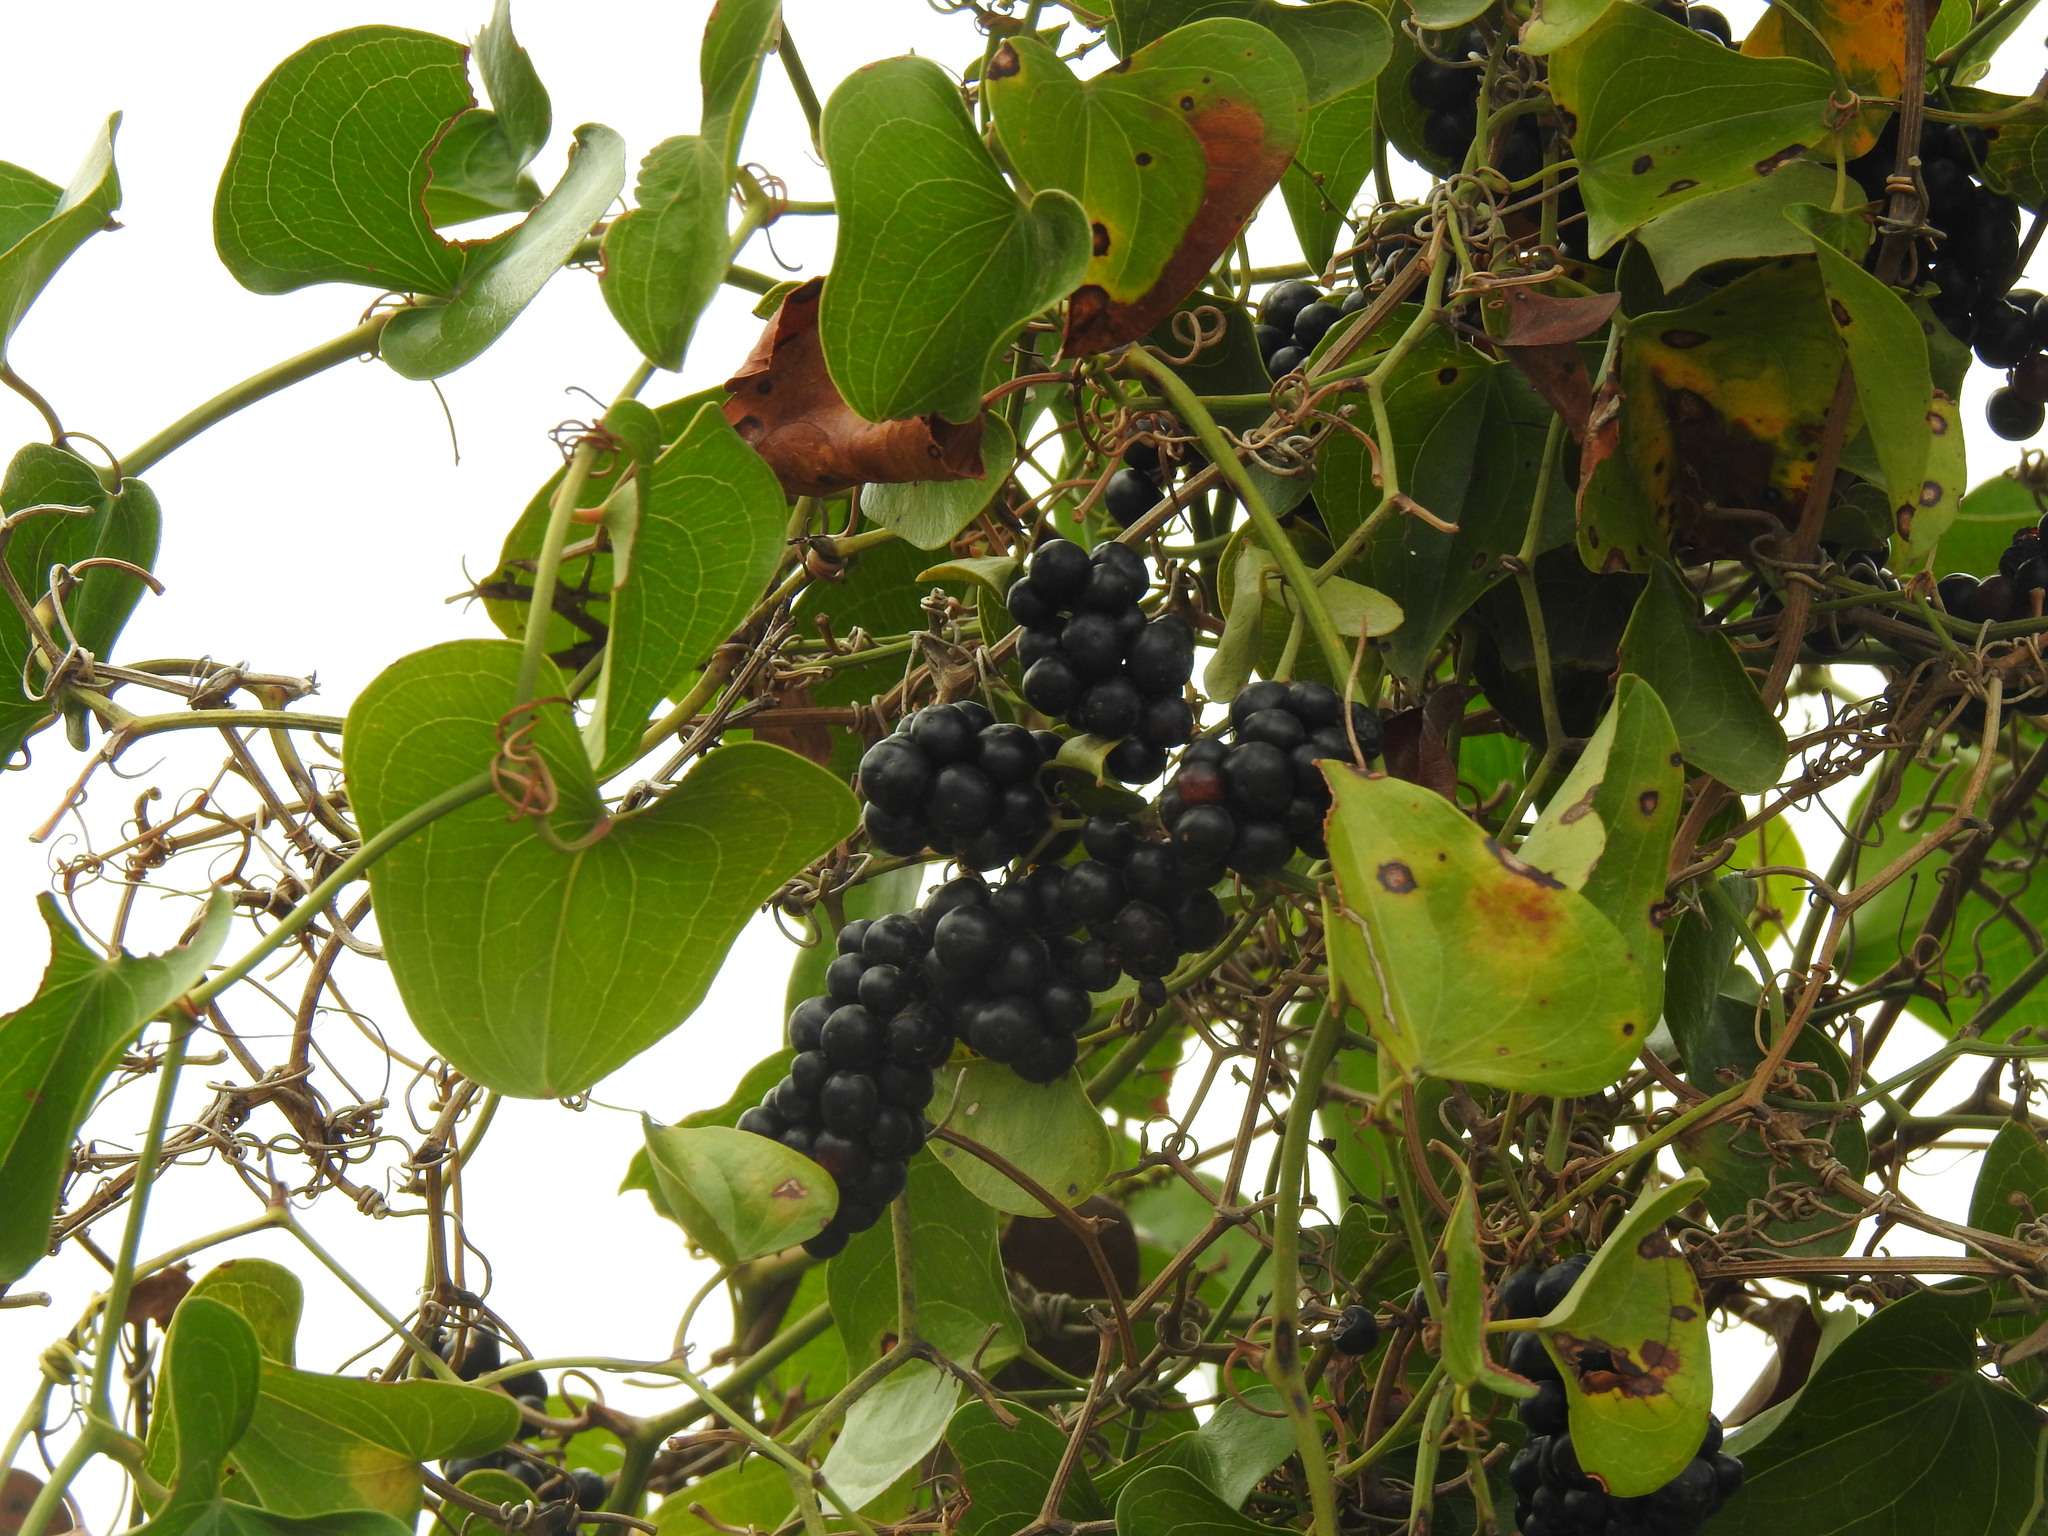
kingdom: Plantae
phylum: Tracheophyta
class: Liliopsida
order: Liliales
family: Smilacaceae
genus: Smilax
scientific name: Smilax aspera
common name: Common smilax
